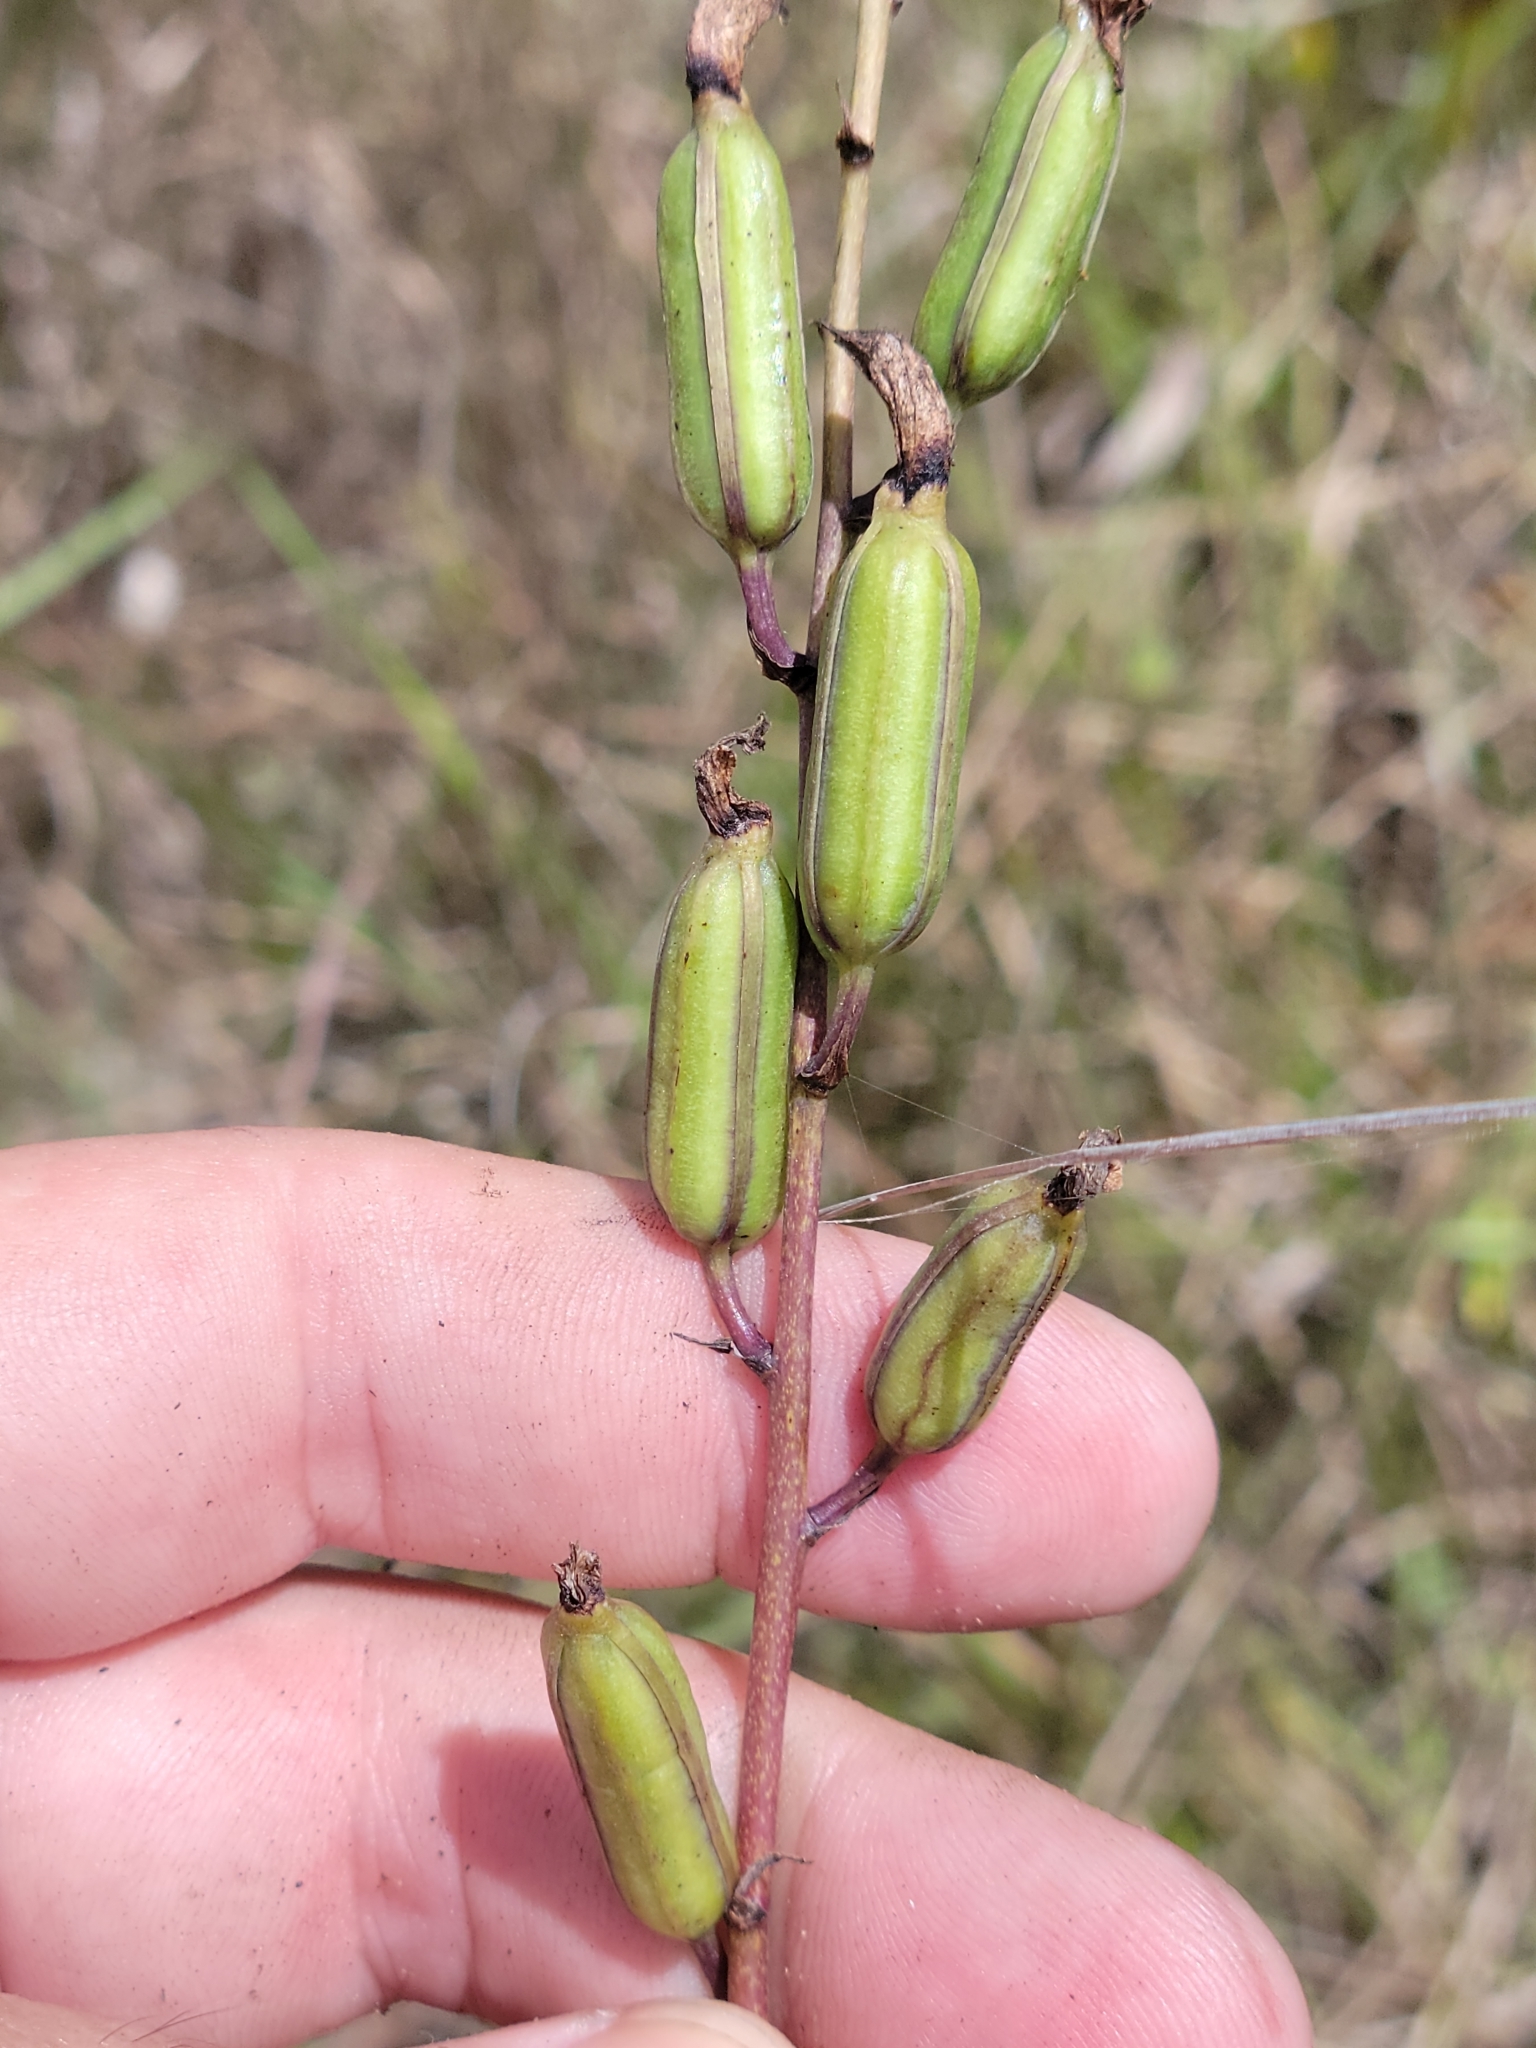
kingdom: Plantae
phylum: Tracheophyta
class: Liliopsida
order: Asparagales
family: Orchidaceae
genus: Bletia
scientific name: Bletia purpurea
